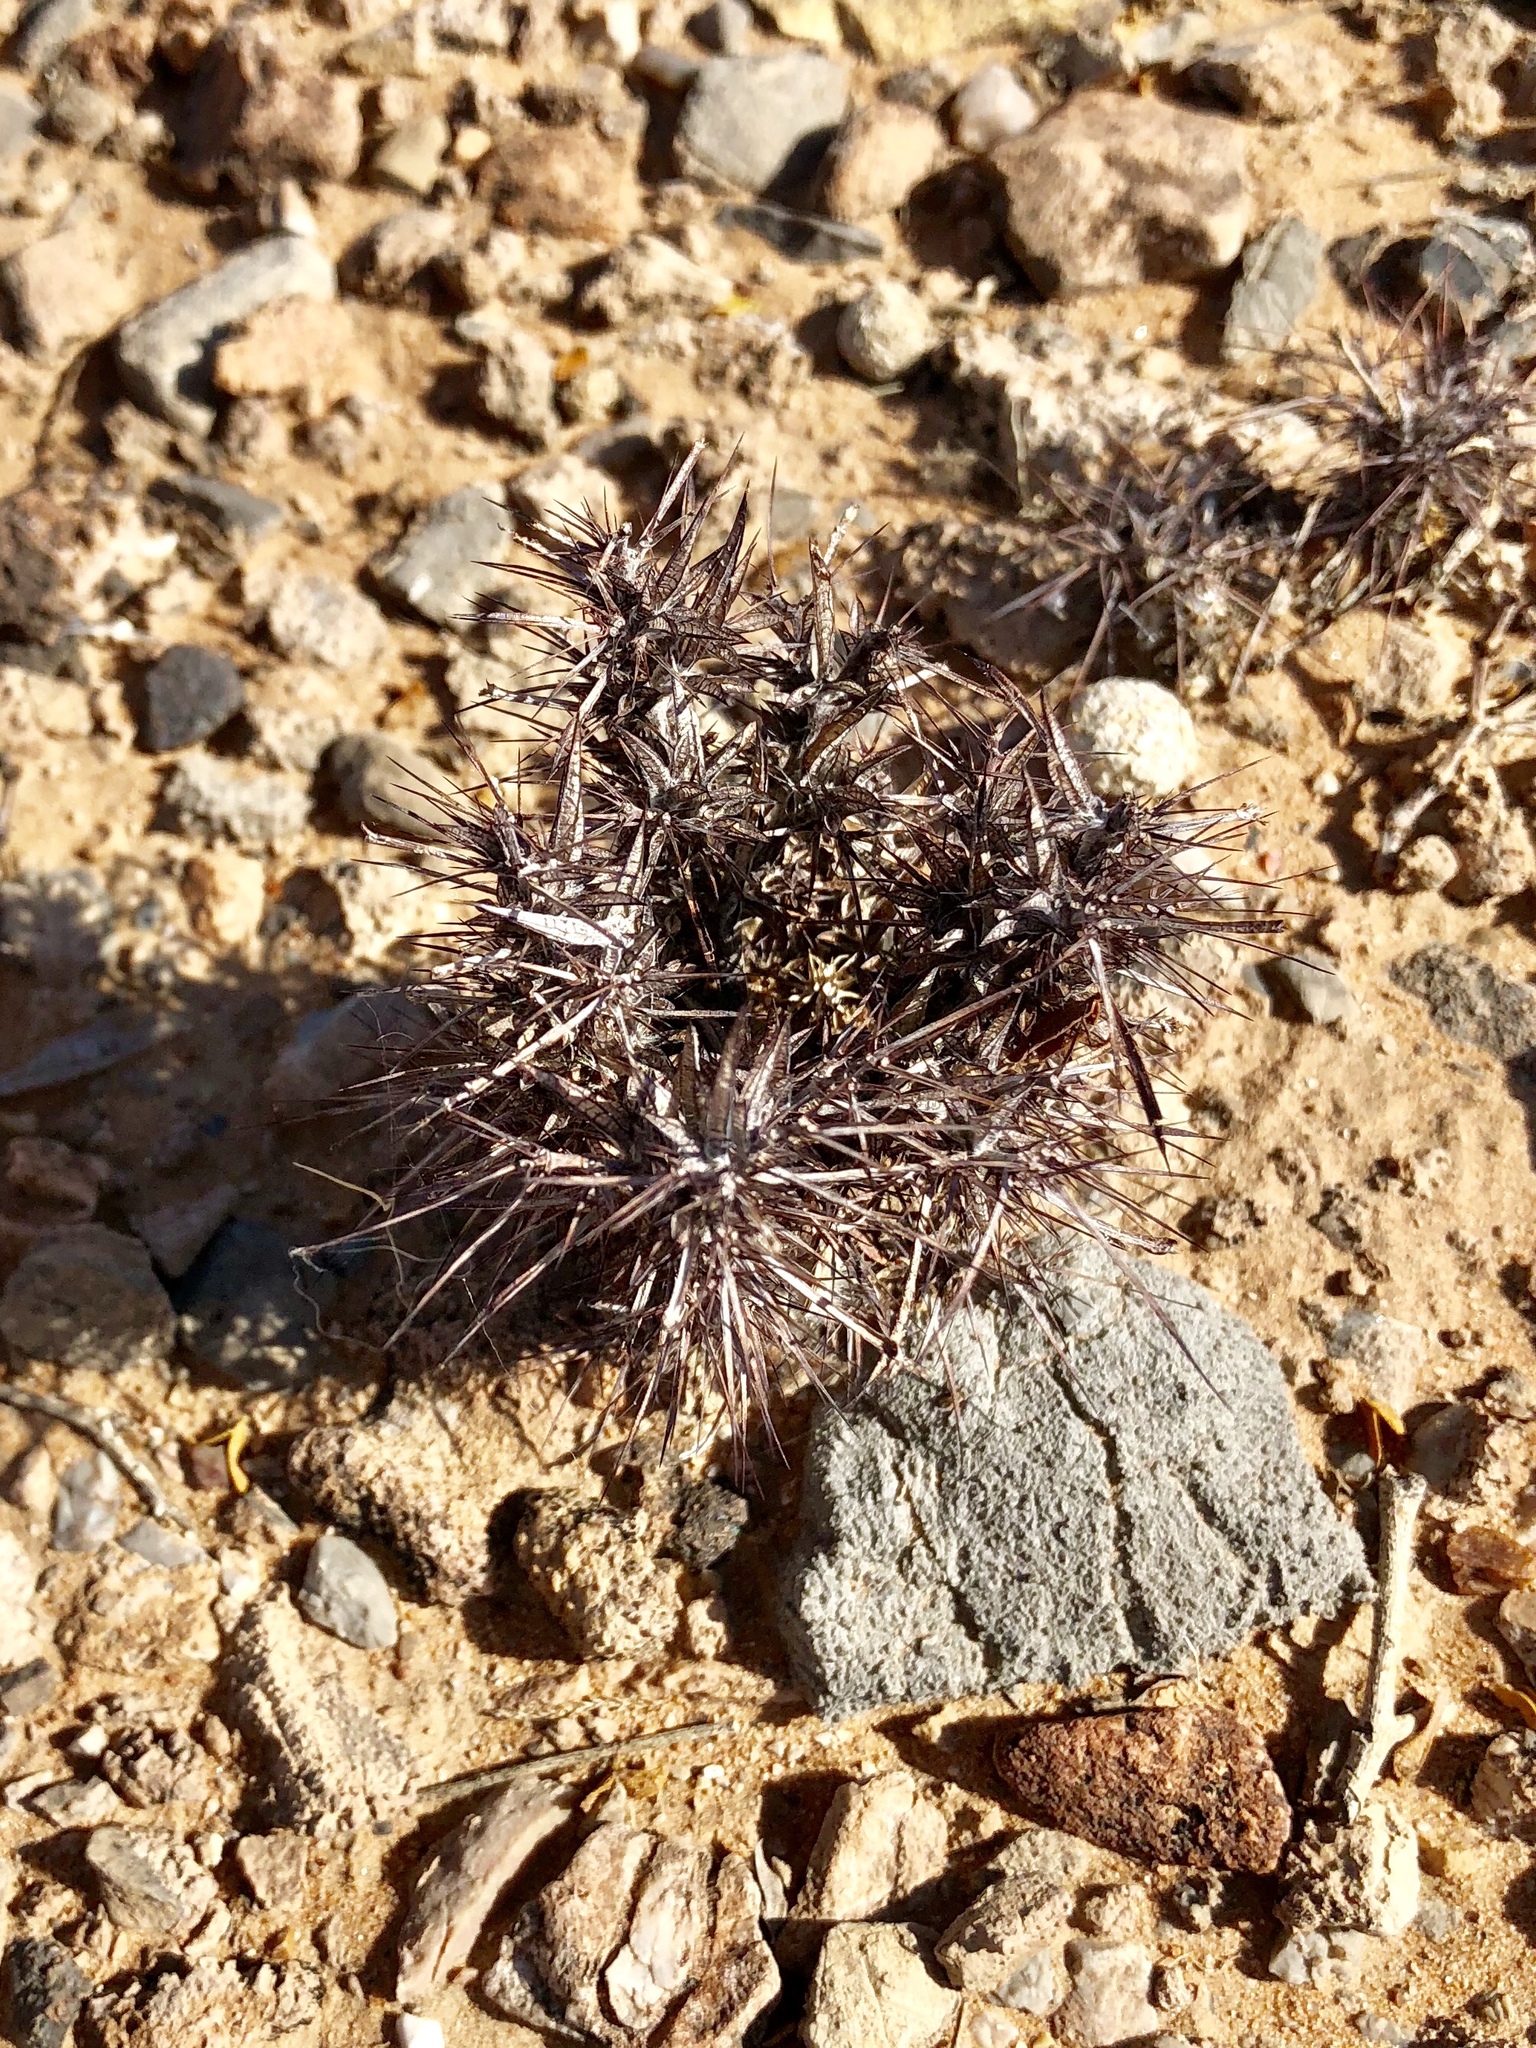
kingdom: Plantae
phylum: Tracheophyta
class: Magnoliopsida
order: Caryophyllales
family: Polygonaceae
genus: Chorizanthe
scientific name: Chorizanthe rigida
